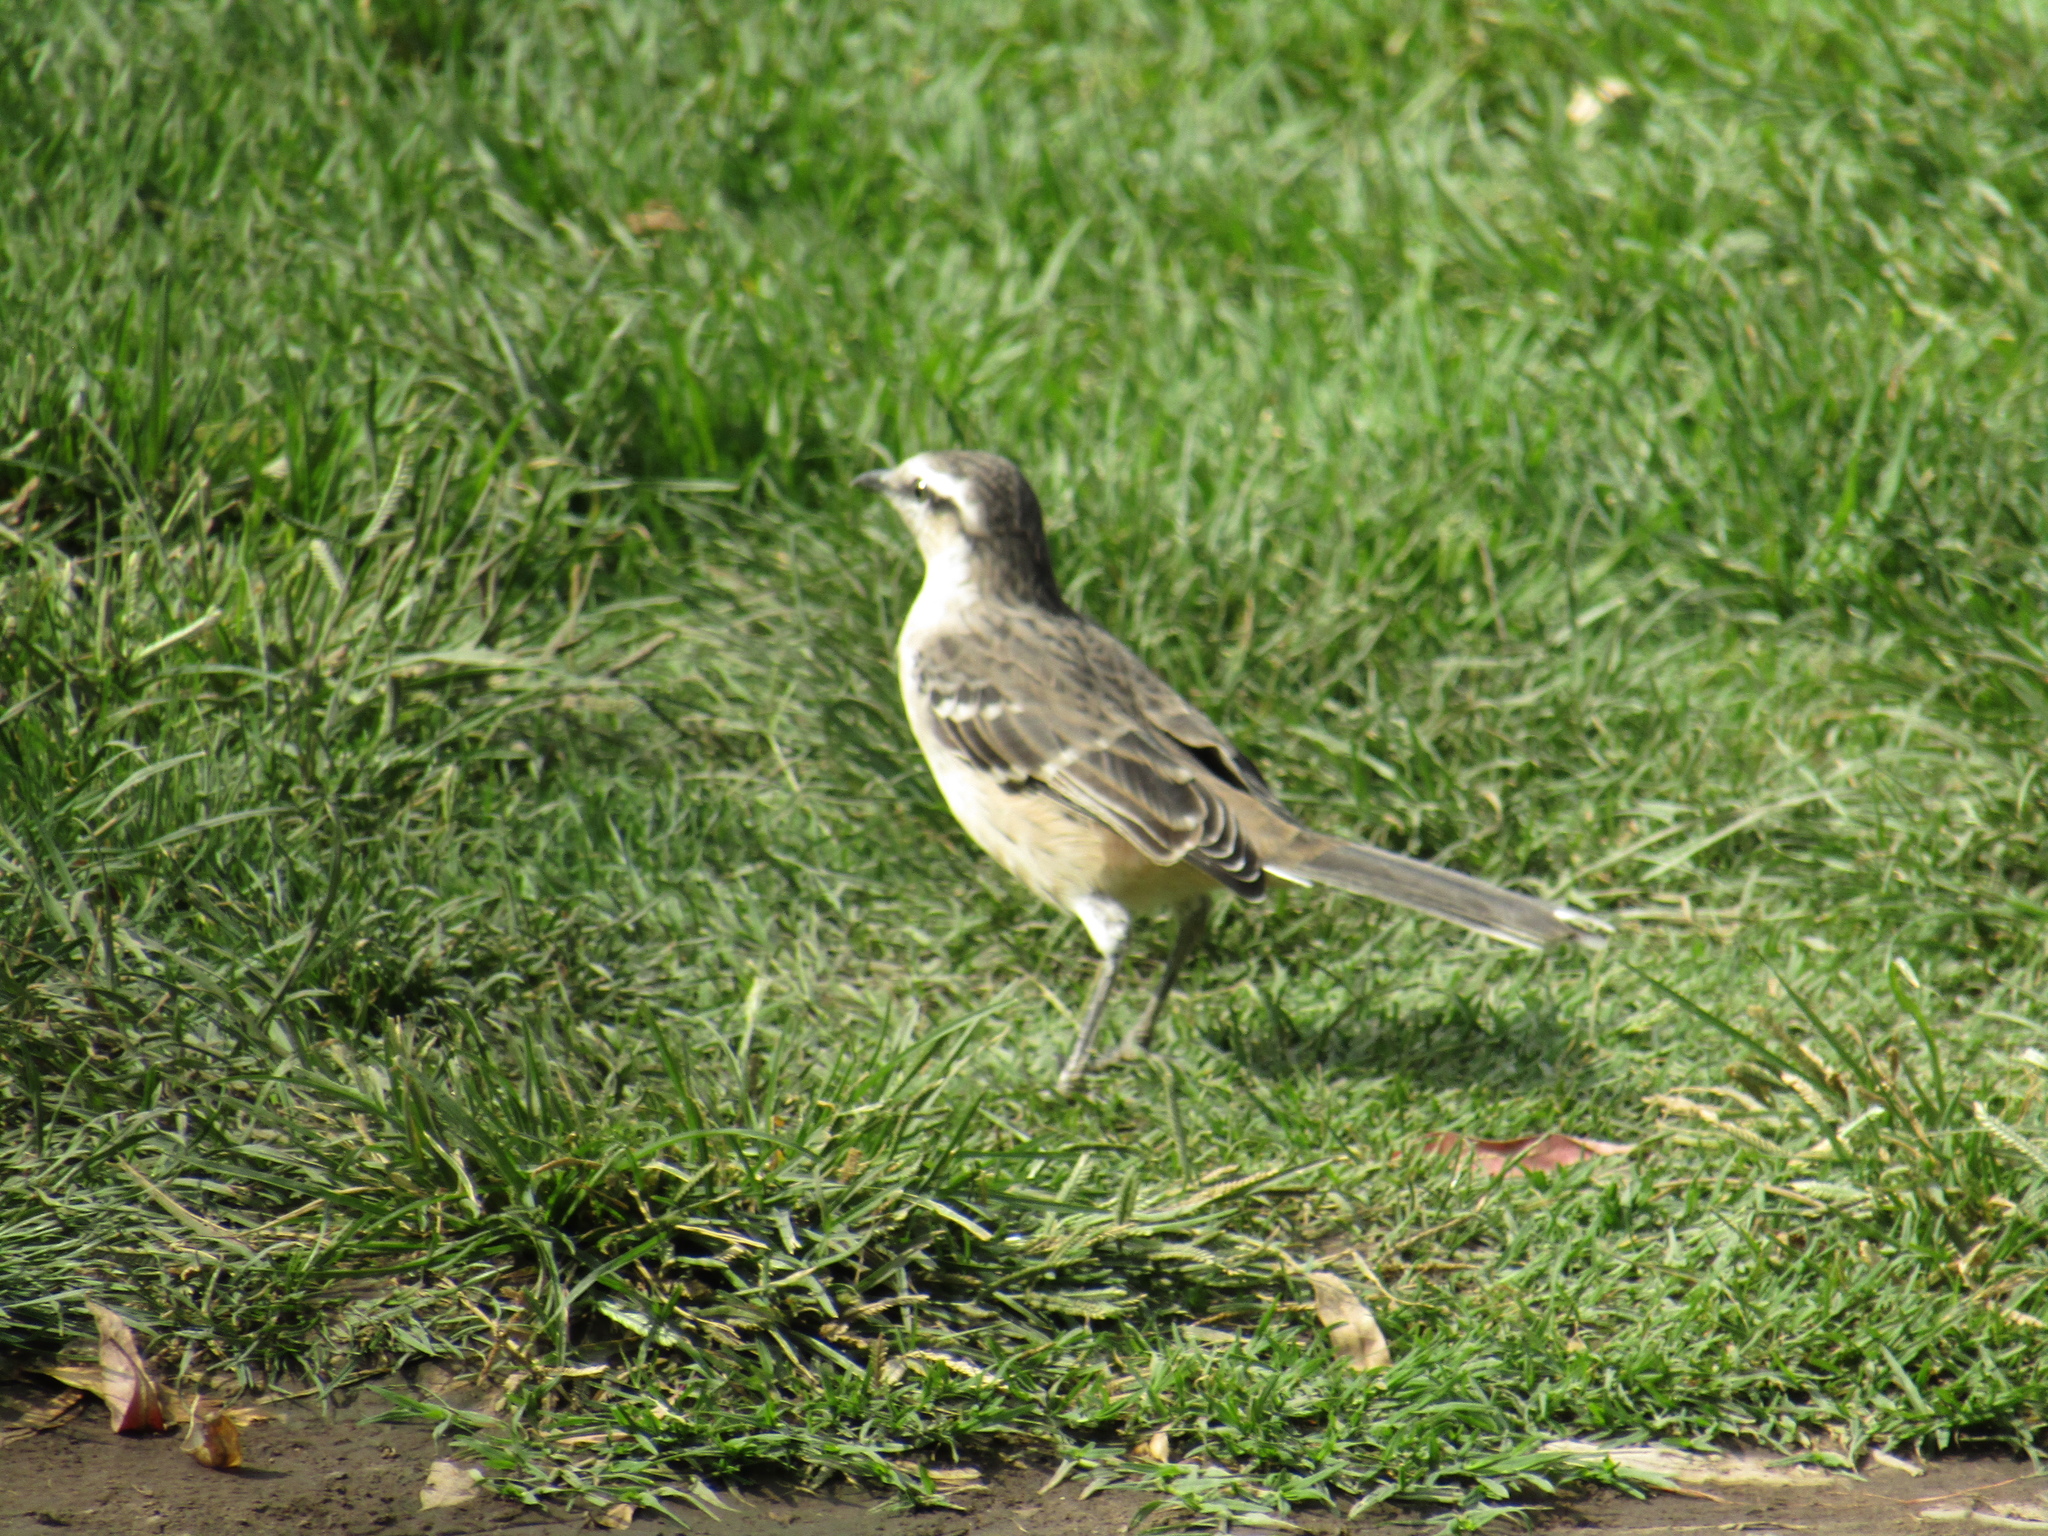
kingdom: Animalia
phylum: Chordata
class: Aves
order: Passeriformes
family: Mimidae
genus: Mimus
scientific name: Mimus saturninus
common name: Chalk-browed mockingbird
